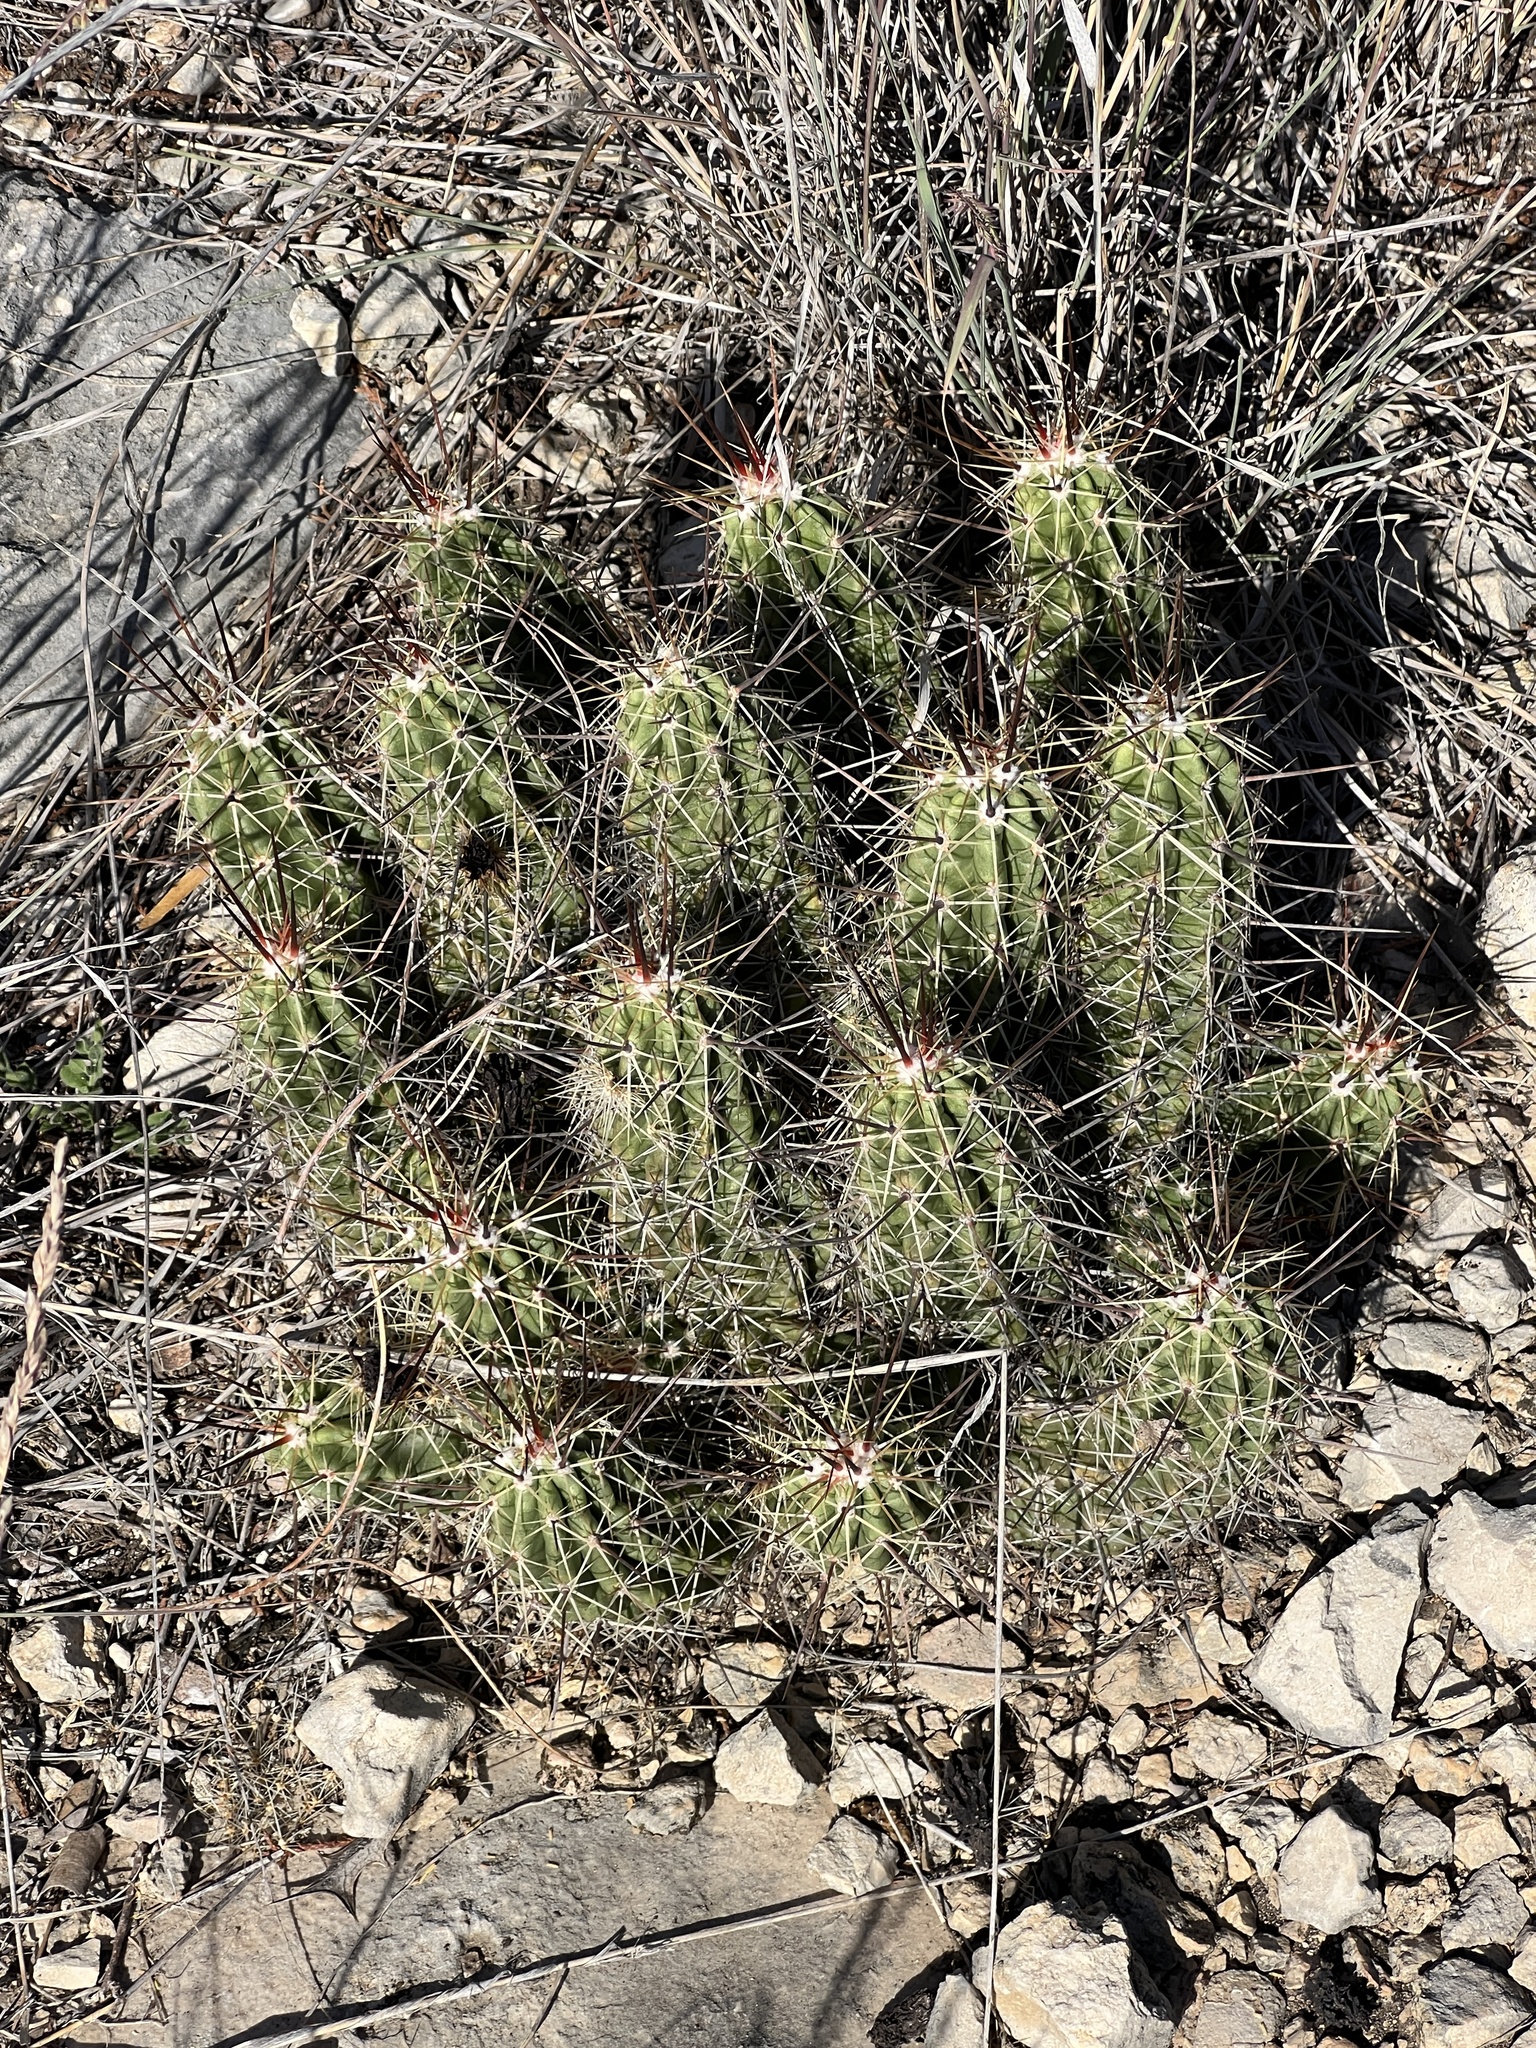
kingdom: Plantae
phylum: Tracheophyta
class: Magnoliopsida
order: Caryophyllales
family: Cactaceae
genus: Echinocereus
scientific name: Echinocereus enneacanthus
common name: Pitaya
